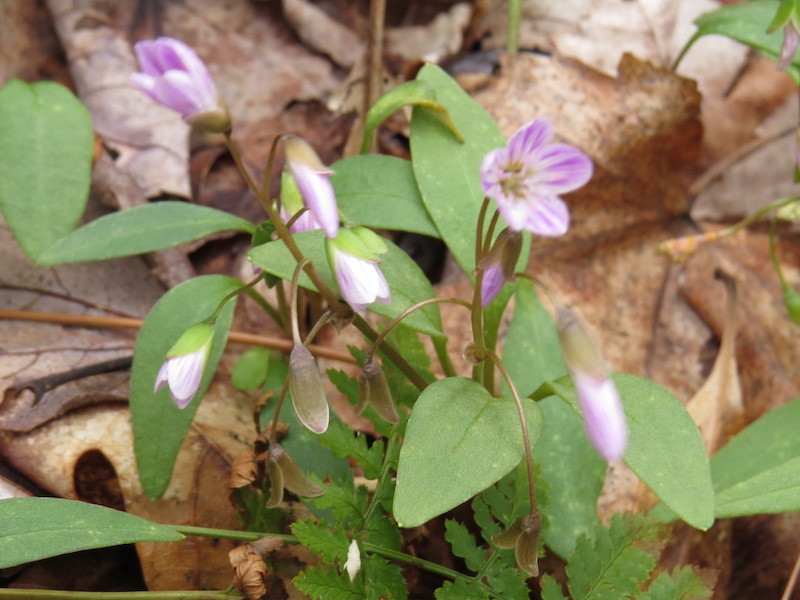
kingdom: Plantae
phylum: Tracheophyta
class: Magnoliopsida
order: Caryophyllales
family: Montiaceae
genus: Claytonia
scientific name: Claytonia caroliniana
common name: Carolina spring beauty
